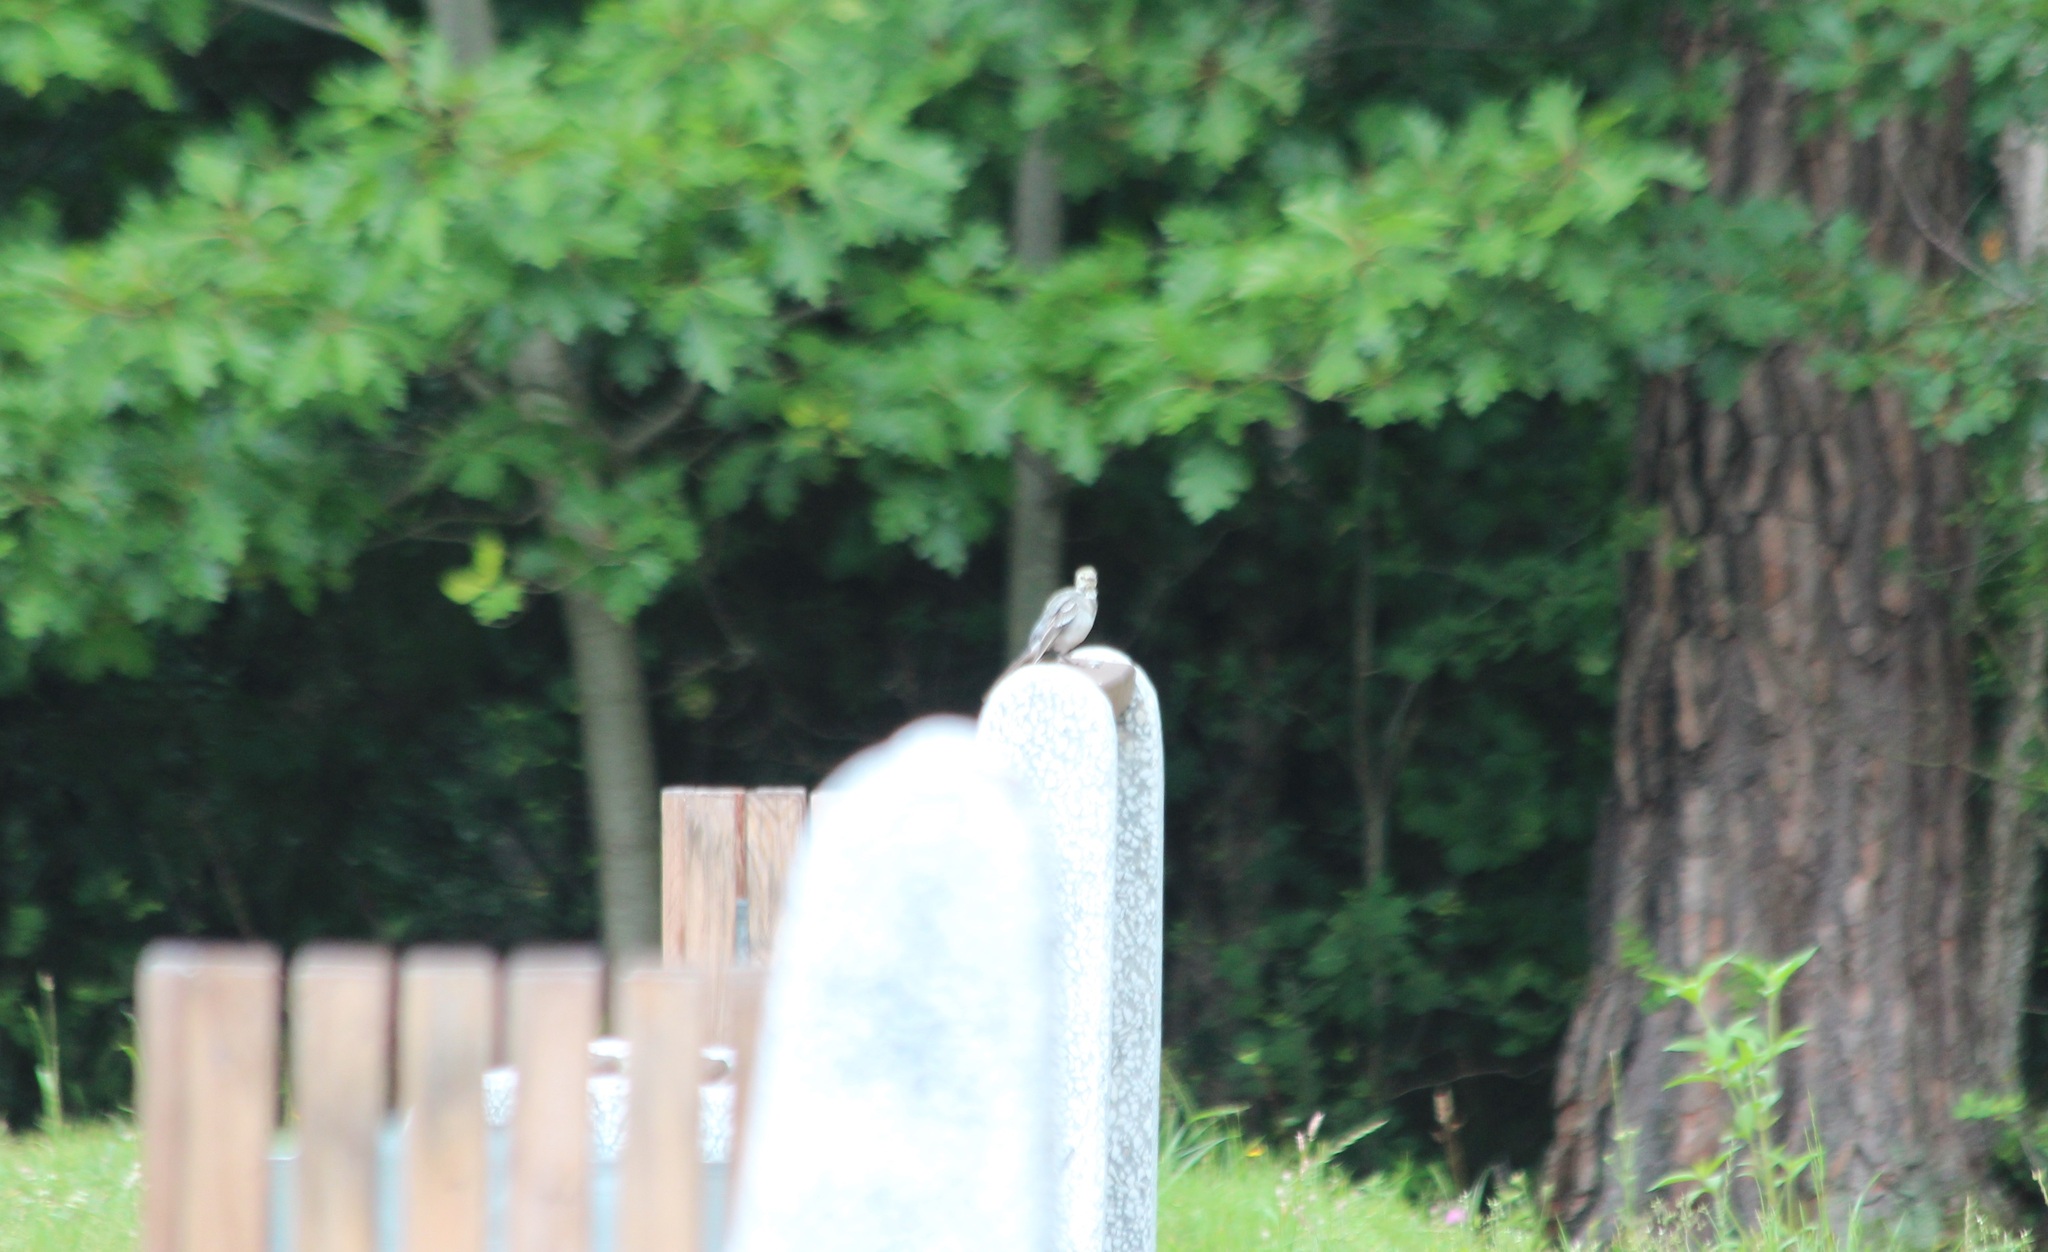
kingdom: Animalia
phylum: Chordata
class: Aves
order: Passeriformes
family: Motacillidae
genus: Motacilla
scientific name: Motacilla alba
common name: White wagtail
